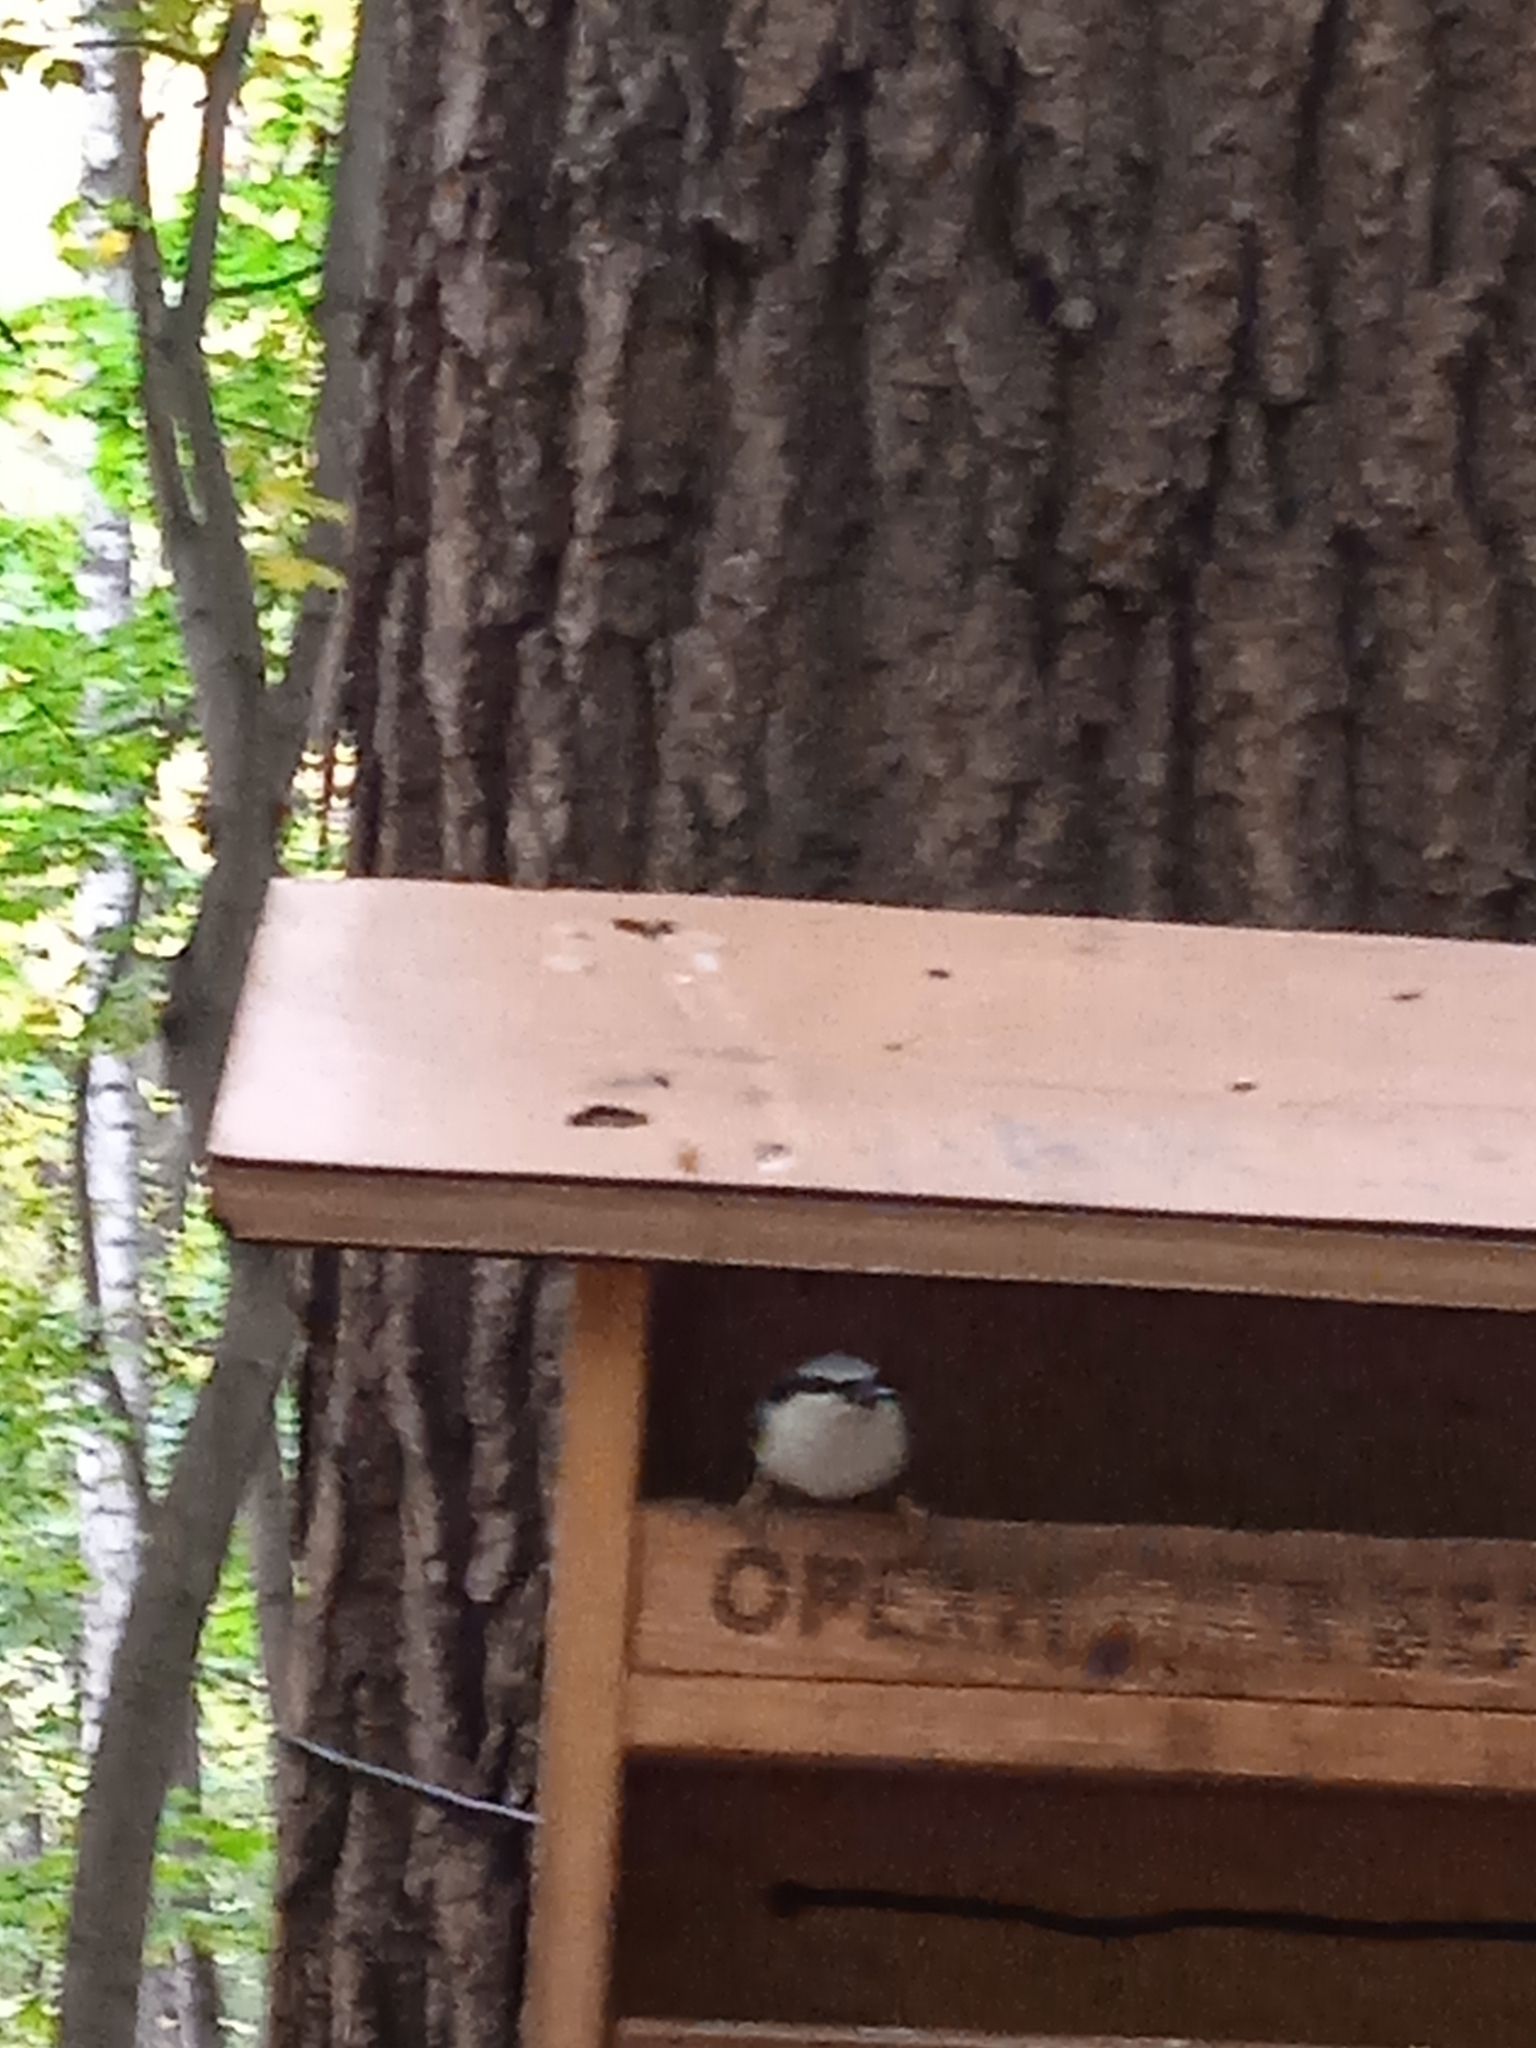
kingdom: Animalia
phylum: Chordata
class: Aves
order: Passeriformes
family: Sittidae
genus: Sitta
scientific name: Sitta europaea
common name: Eurasian nuthatch
